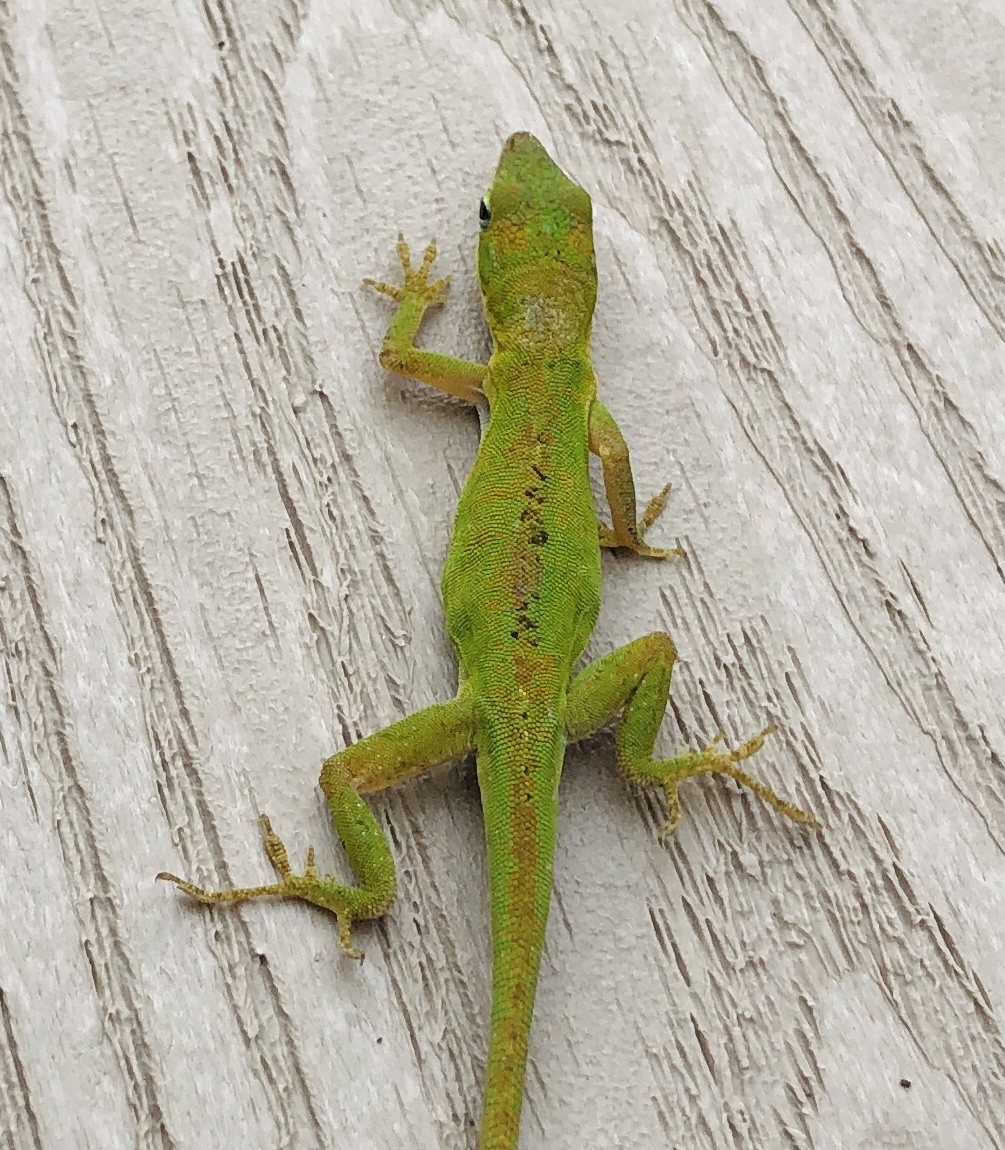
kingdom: Animalia
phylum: Chordata
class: Squamata
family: Dactyloidae
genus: Anolis
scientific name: Anolis carolinensis
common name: Green anole
